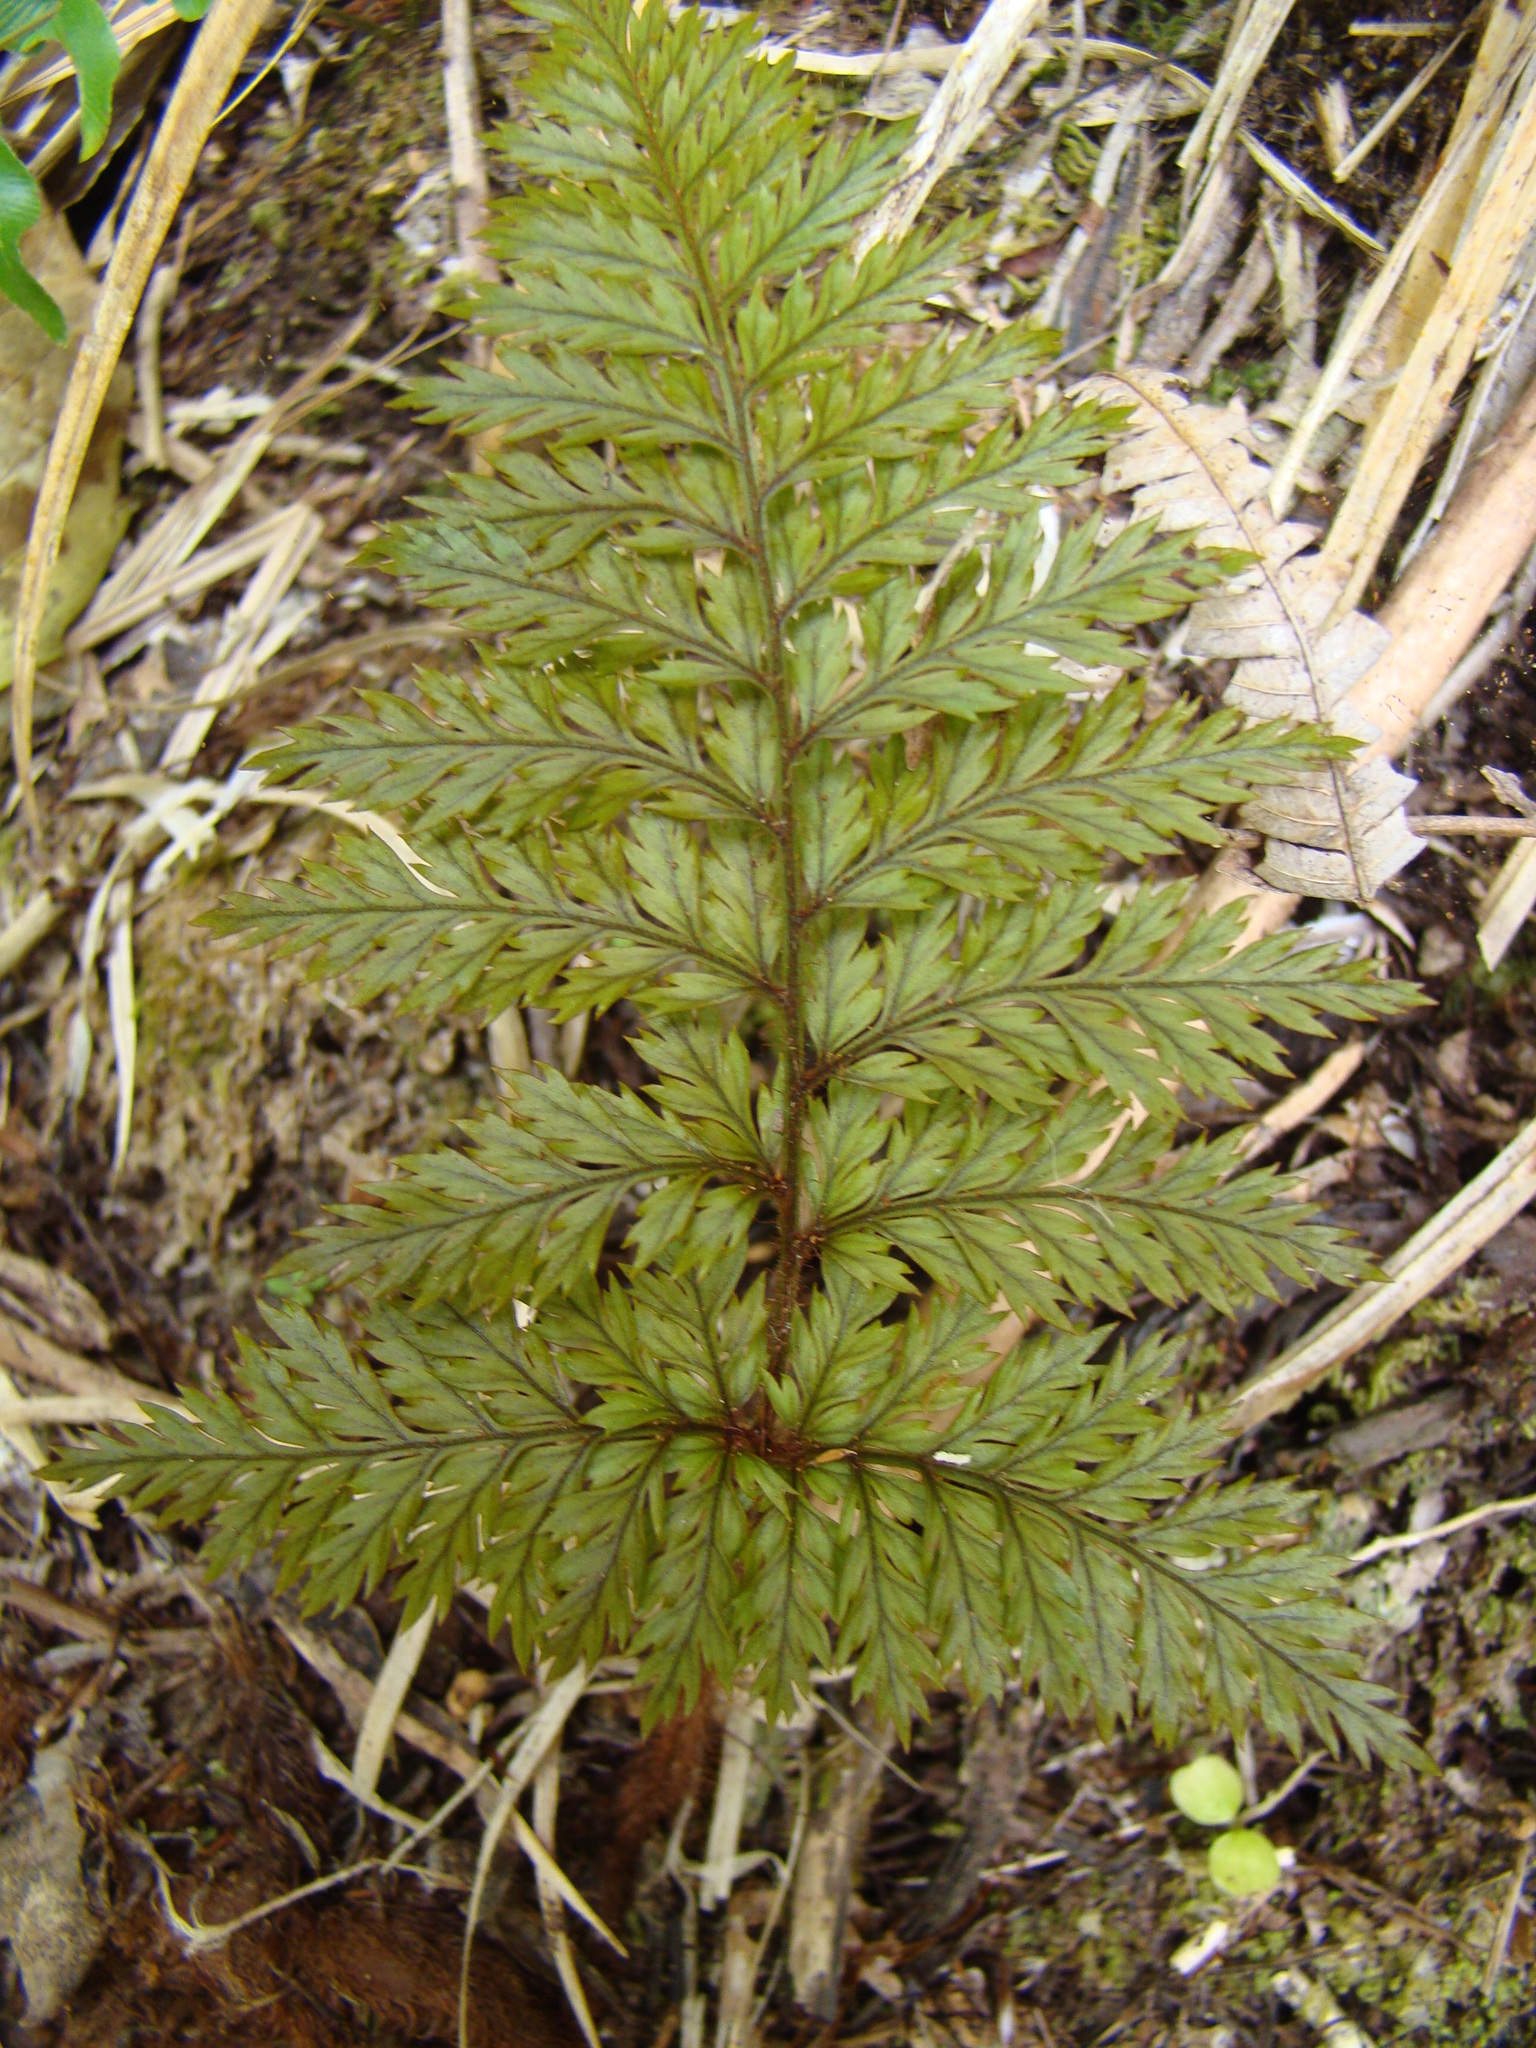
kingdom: Plantae
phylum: Tracheophyta
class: Polypodiopsida
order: Polypodiales
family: Dryopteridaceae
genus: Lastreopsis
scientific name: Lastreopsis hispida
